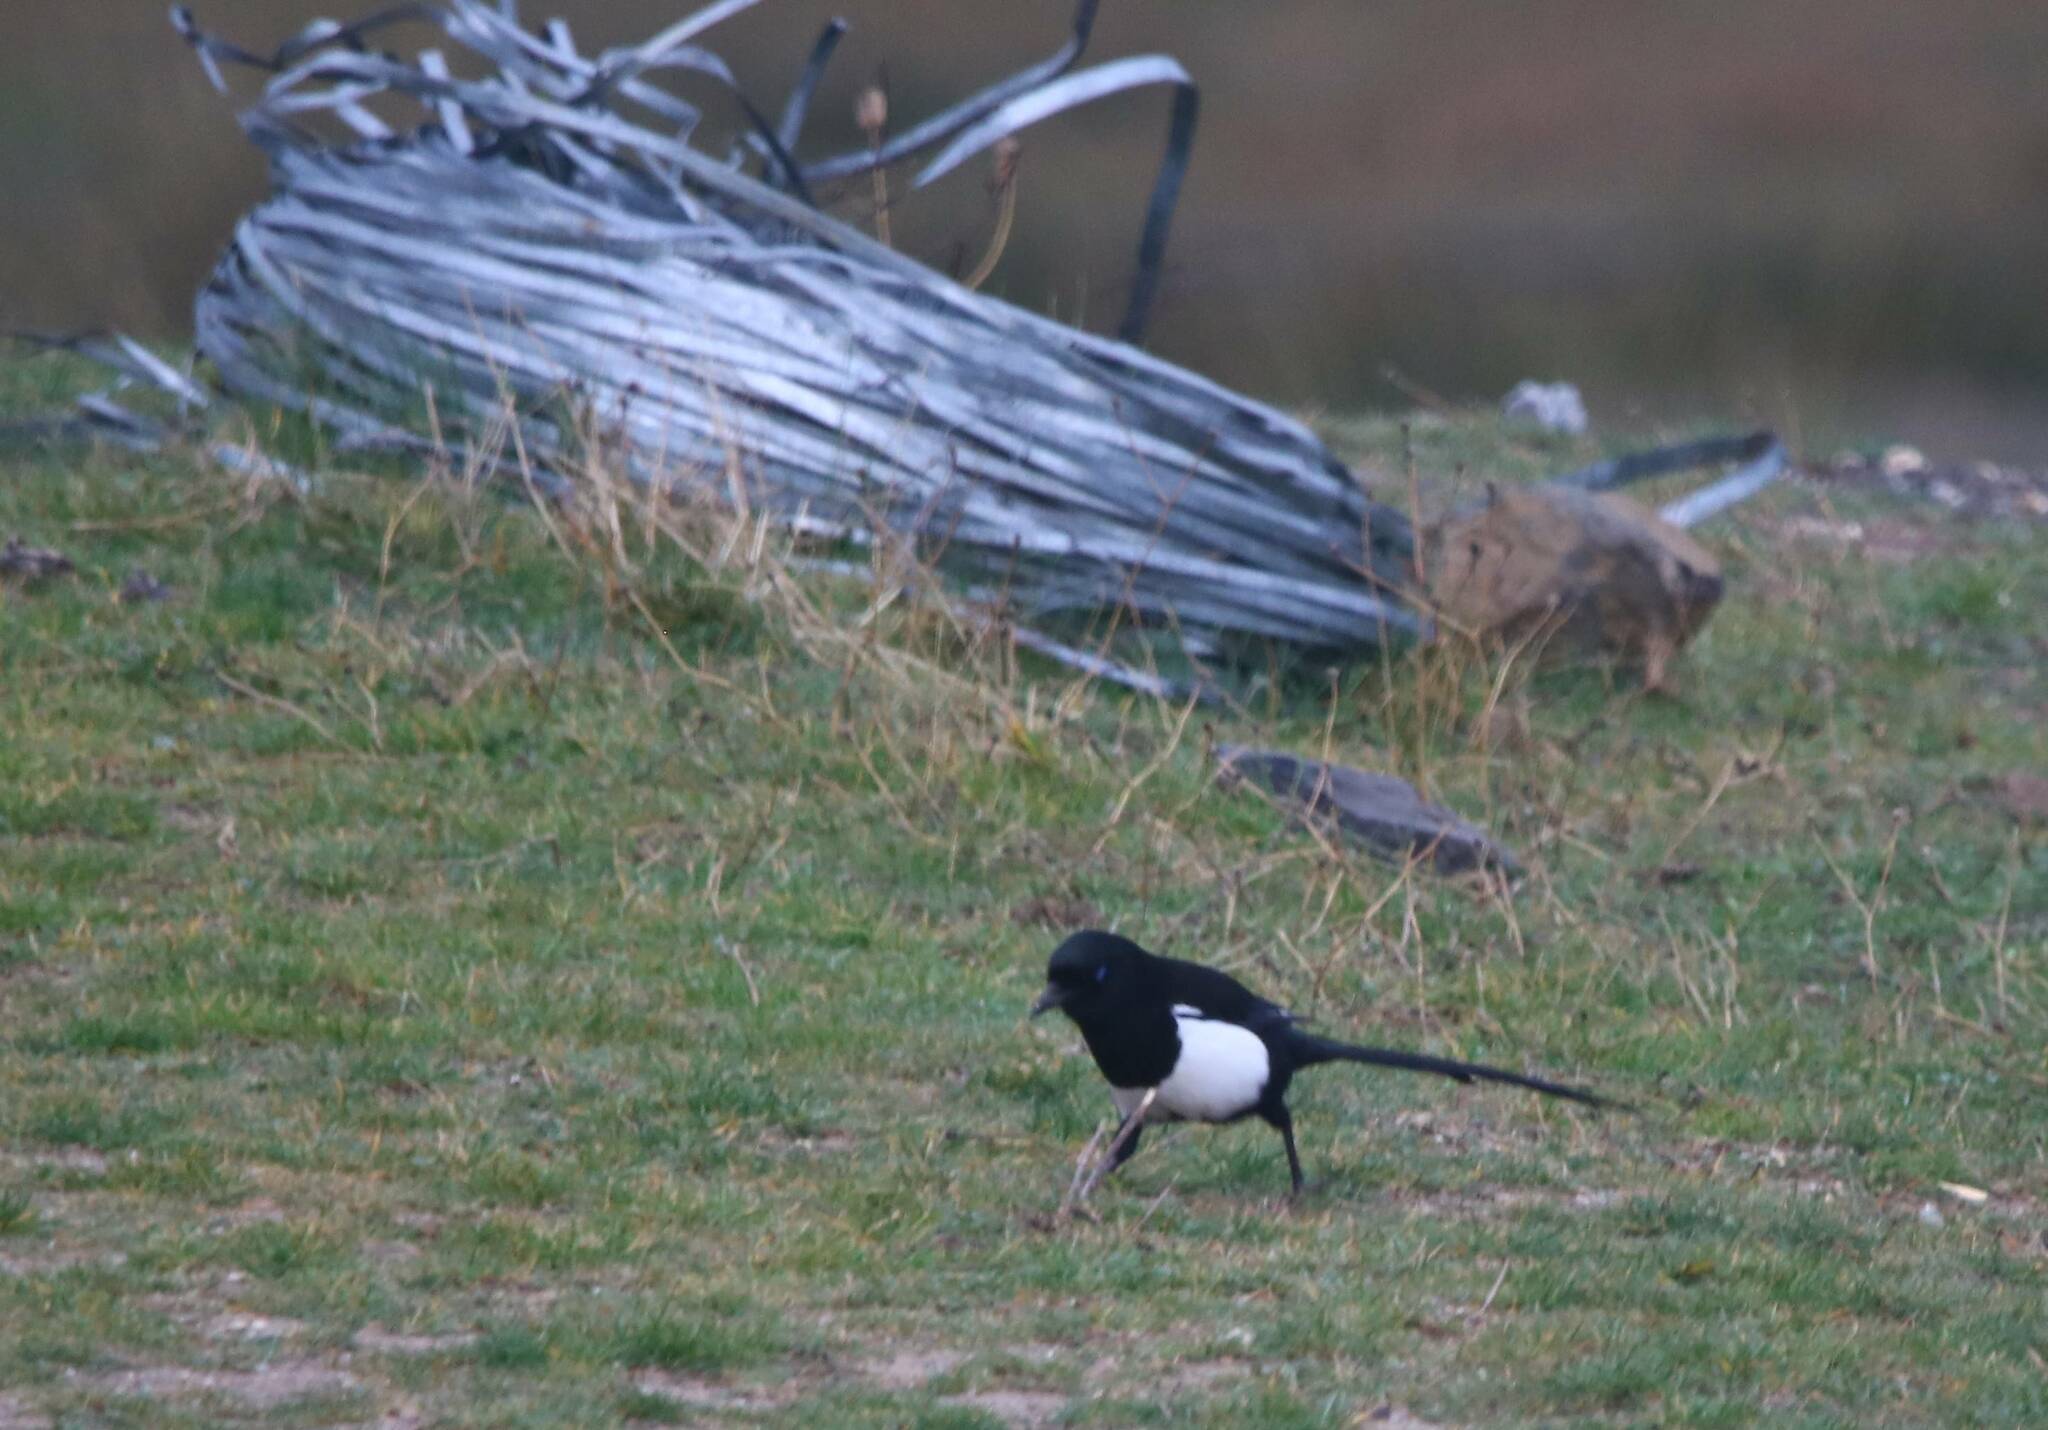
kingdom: Animalia
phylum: Chordata
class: Aves
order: Passeriformes
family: Corvidae
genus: Pica
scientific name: Pica mauritanica
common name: Maghreb magpie
